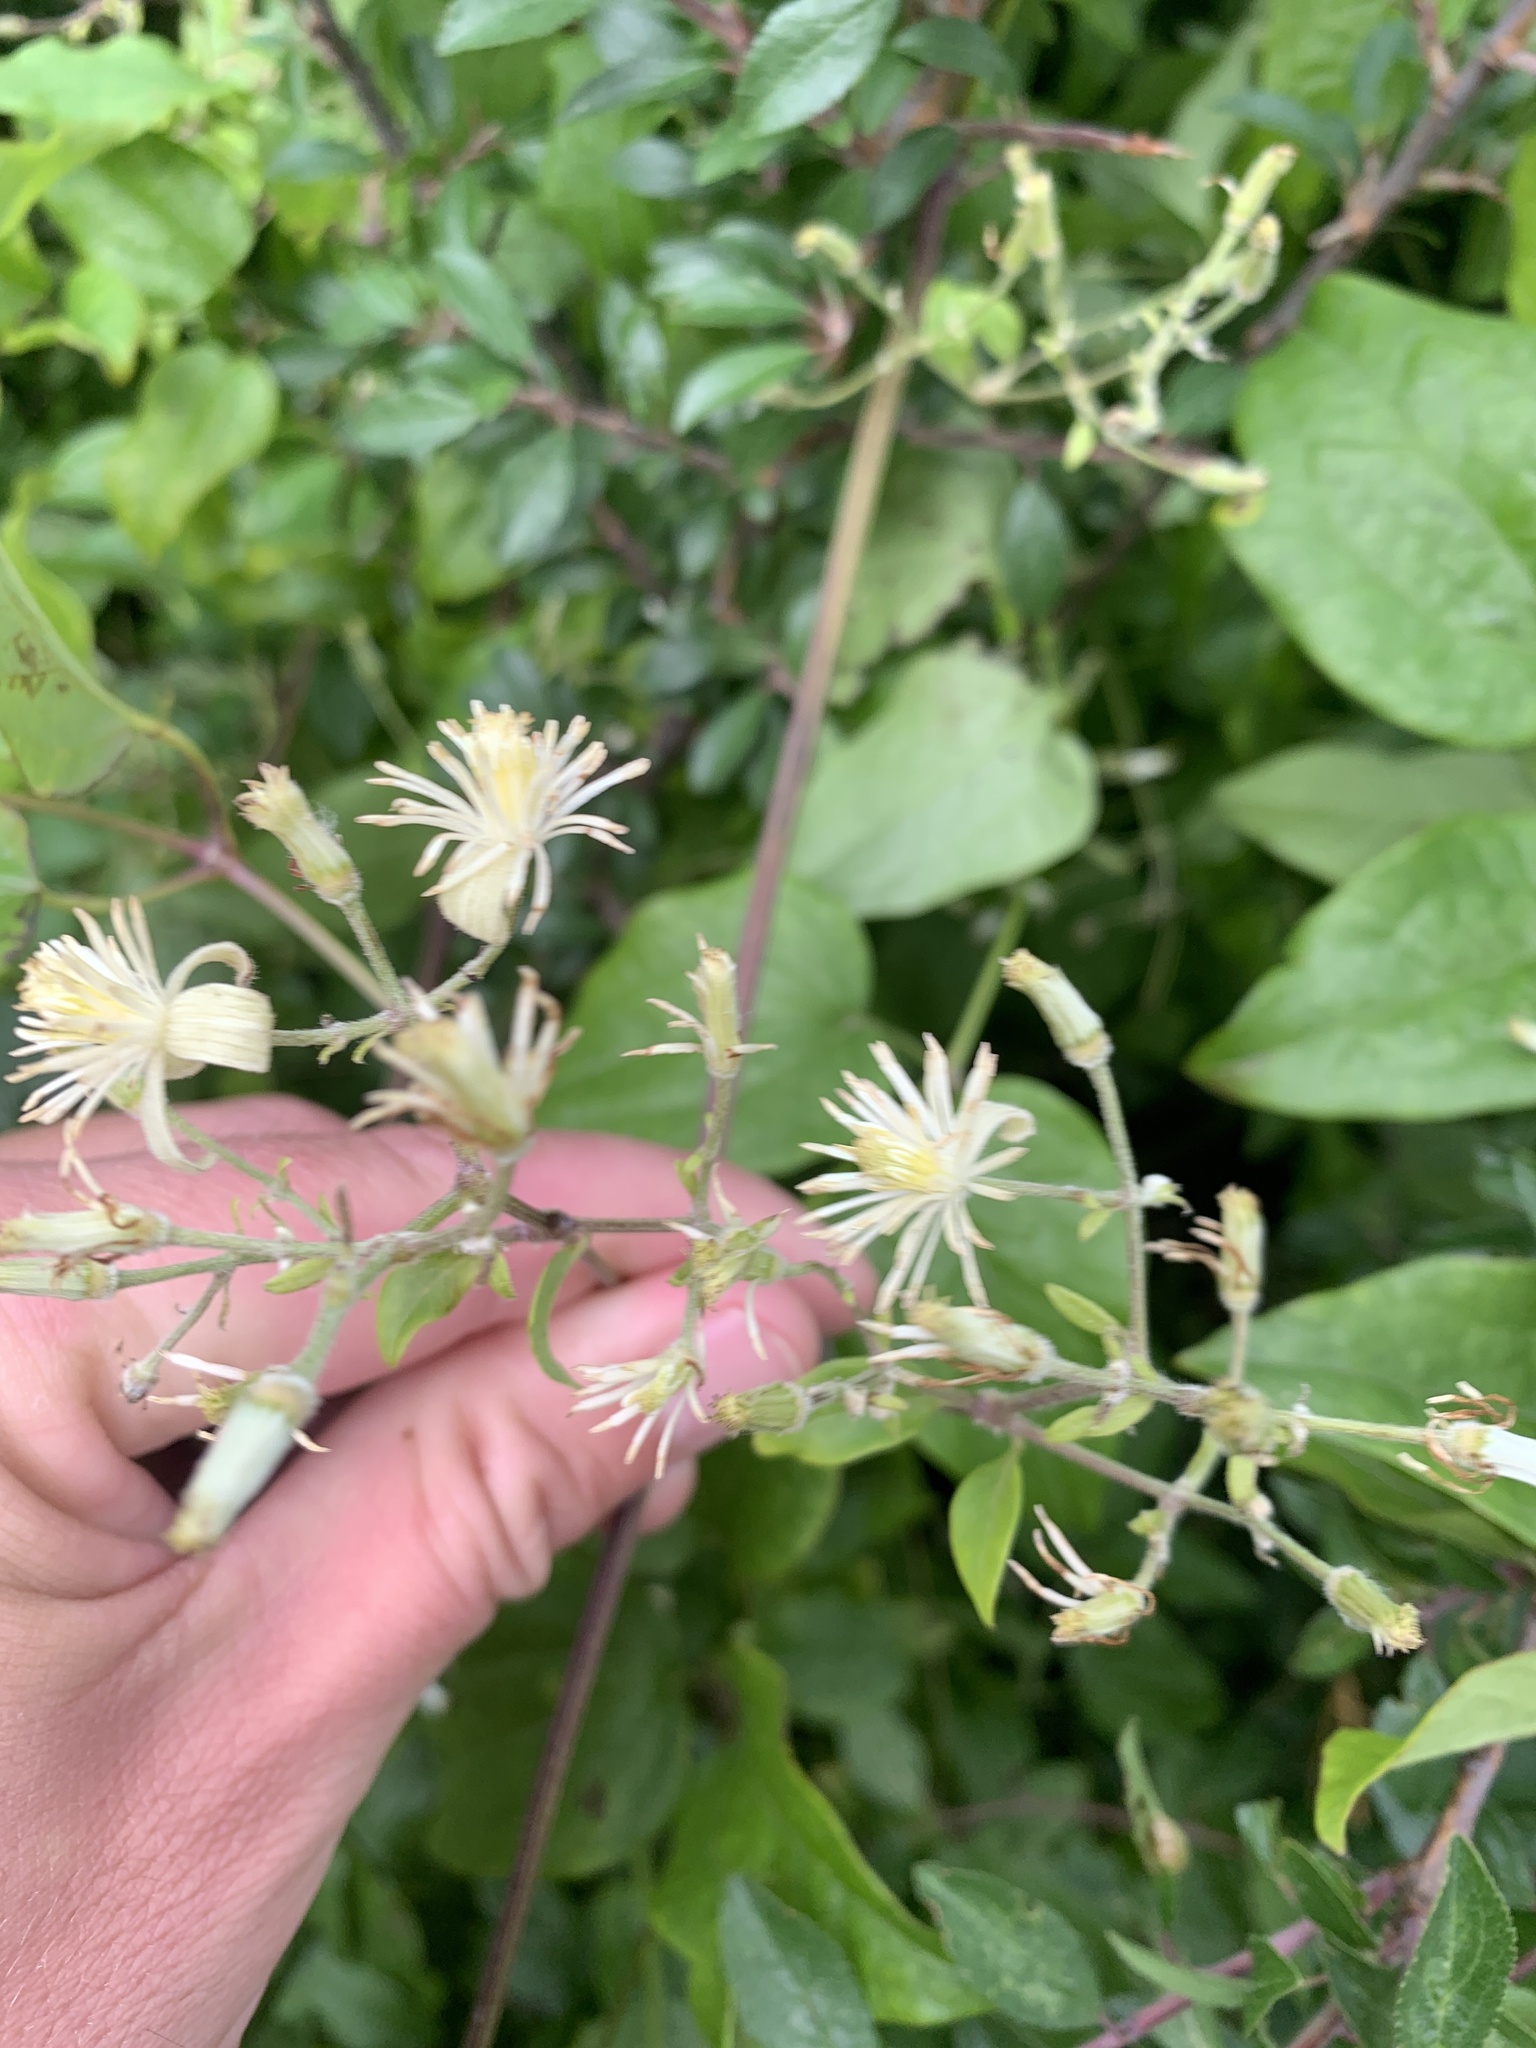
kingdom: Plantae
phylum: Tracheophyta
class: Magnoliopsida
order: Ranunculales
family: Ranunculaceae
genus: Clematis
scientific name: Clematis vitalba
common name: Evergreen clematis
